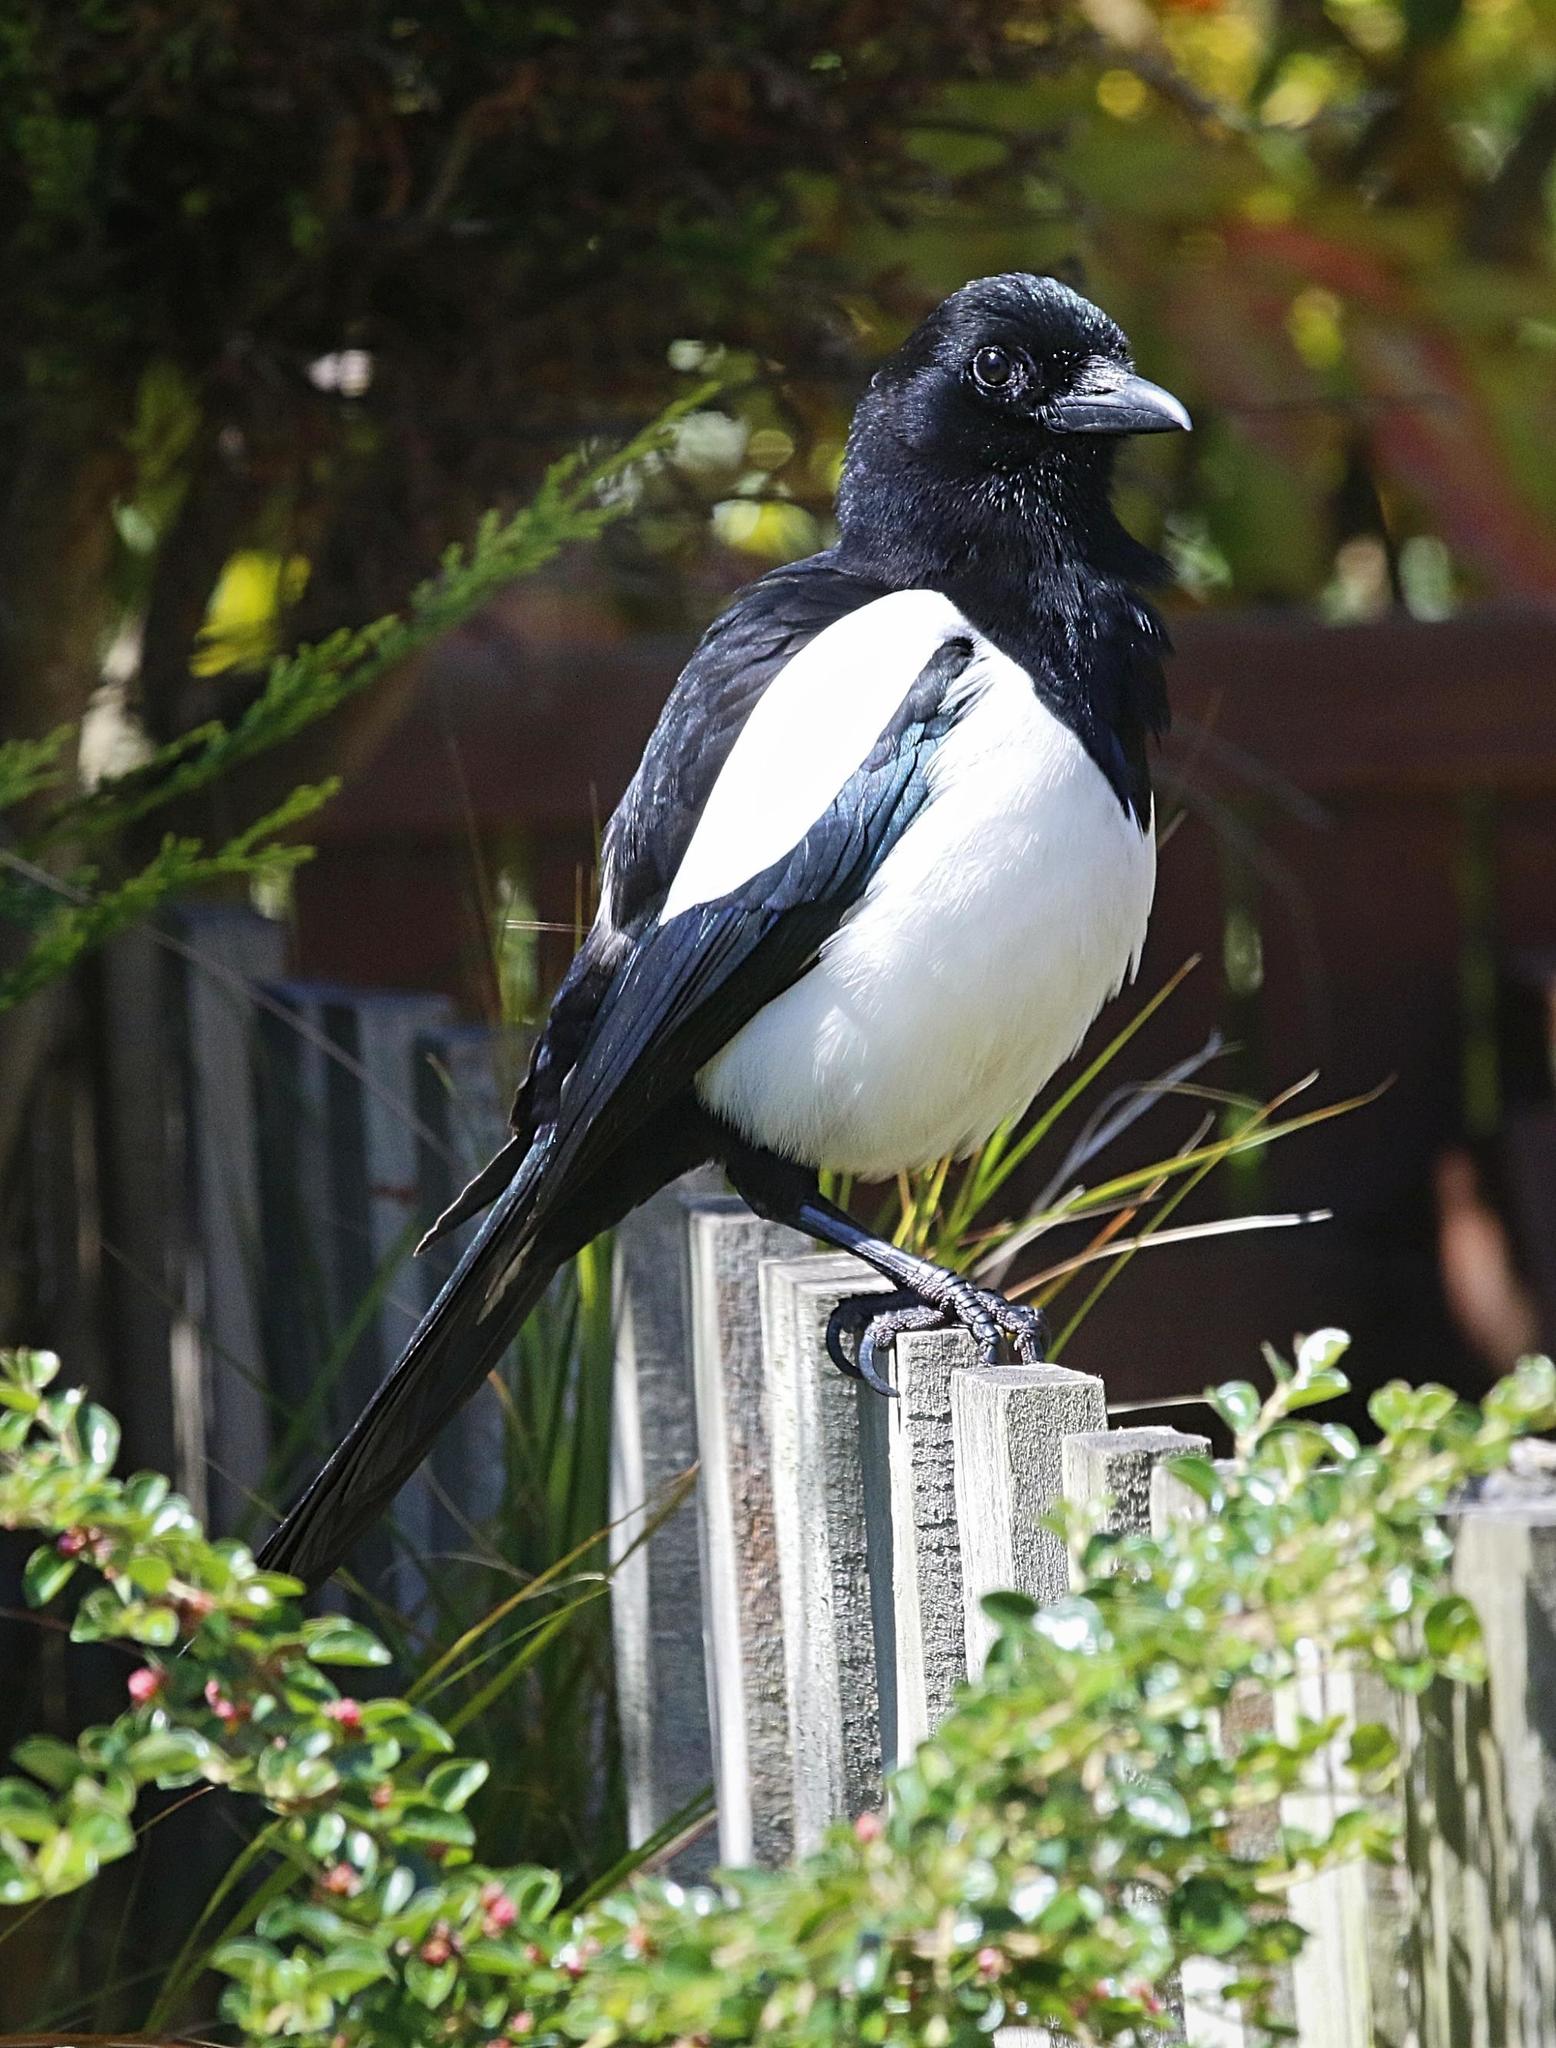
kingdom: Animalia
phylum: Chordata
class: Aves
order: Passeriformes
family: Corvidae
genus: Pica
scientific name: Pica pica
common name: Eurasian magpie
